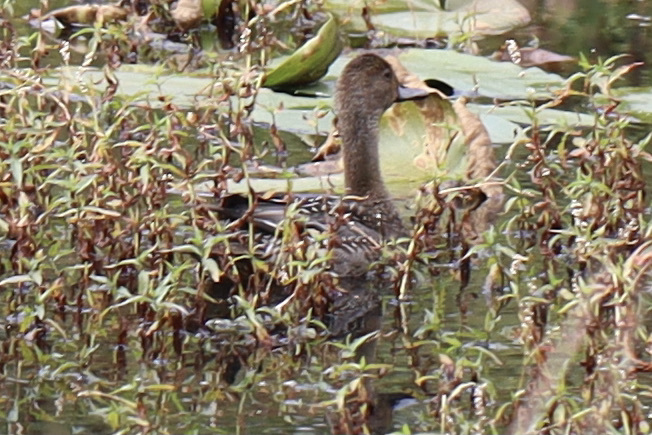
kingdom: Animalia
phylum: Chordata
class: Aves
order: Anseriformes
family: Anatidae
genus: Anas
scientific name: Anas acuta
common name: Northern pintail
